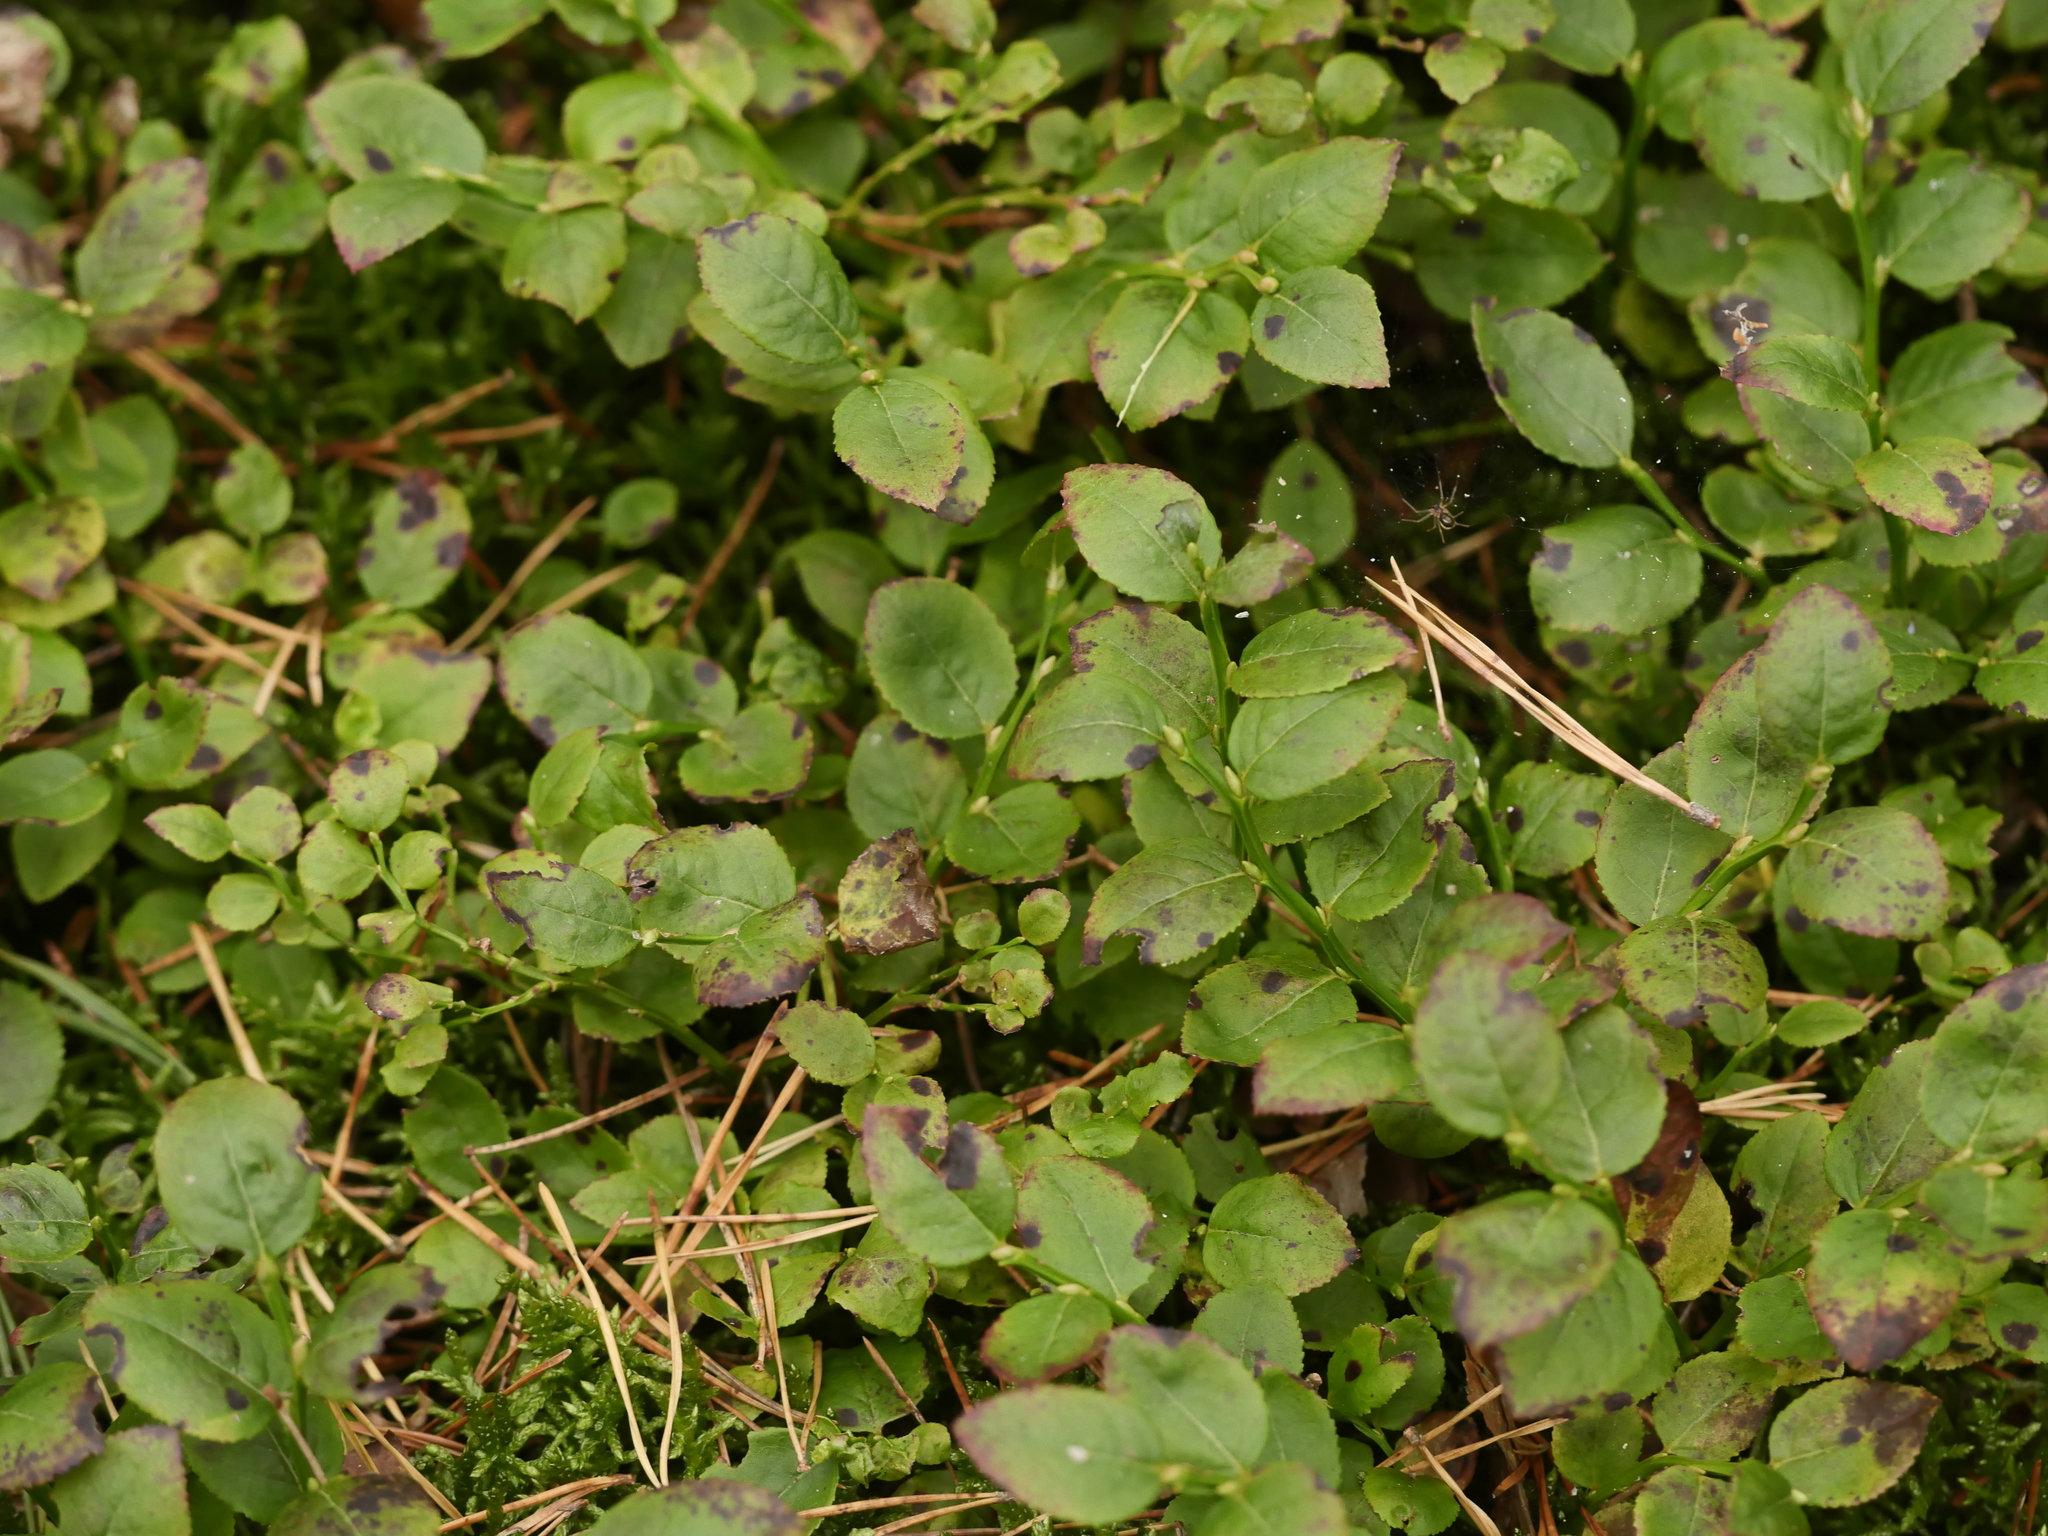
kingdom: Plantae
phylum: Tracheophyta
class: Magnoliopsida
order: Ericales
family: Ericaceae
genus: Vaccinium
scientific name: Vaccinium myrtillus
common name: Bilberry
